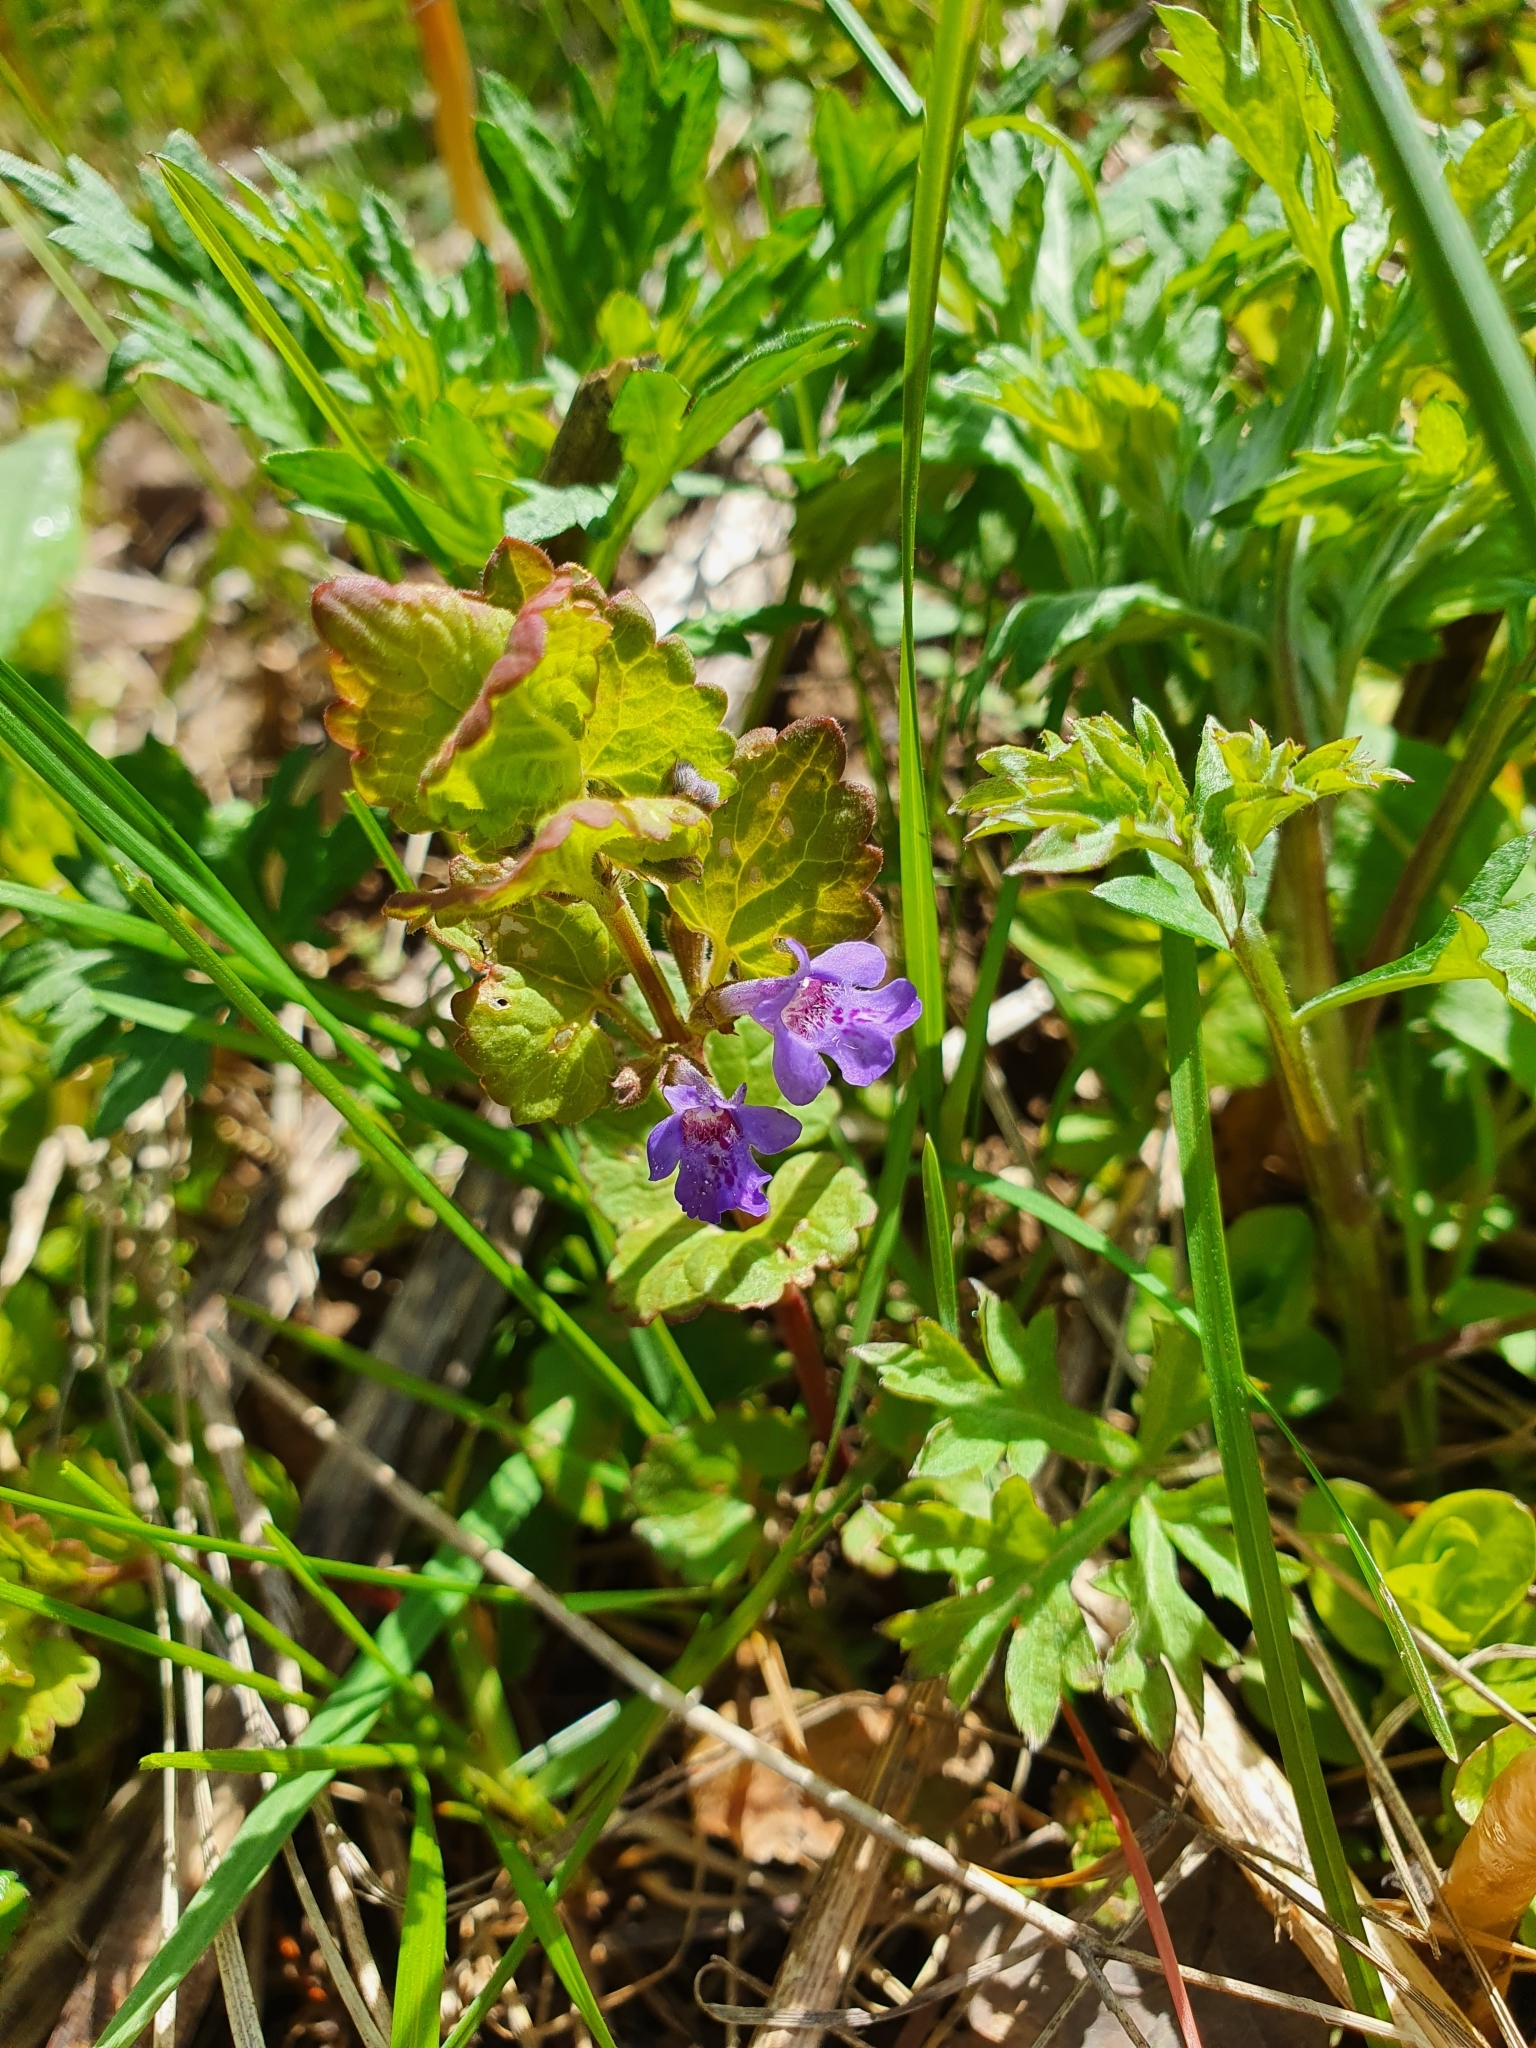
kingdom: Plantae
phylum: Tracheophyta
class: Magnoliopsida
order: Lamiales
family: Lamiaceae
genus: Glechoma
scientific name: Glechoma hederacea
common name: Ground ivy
